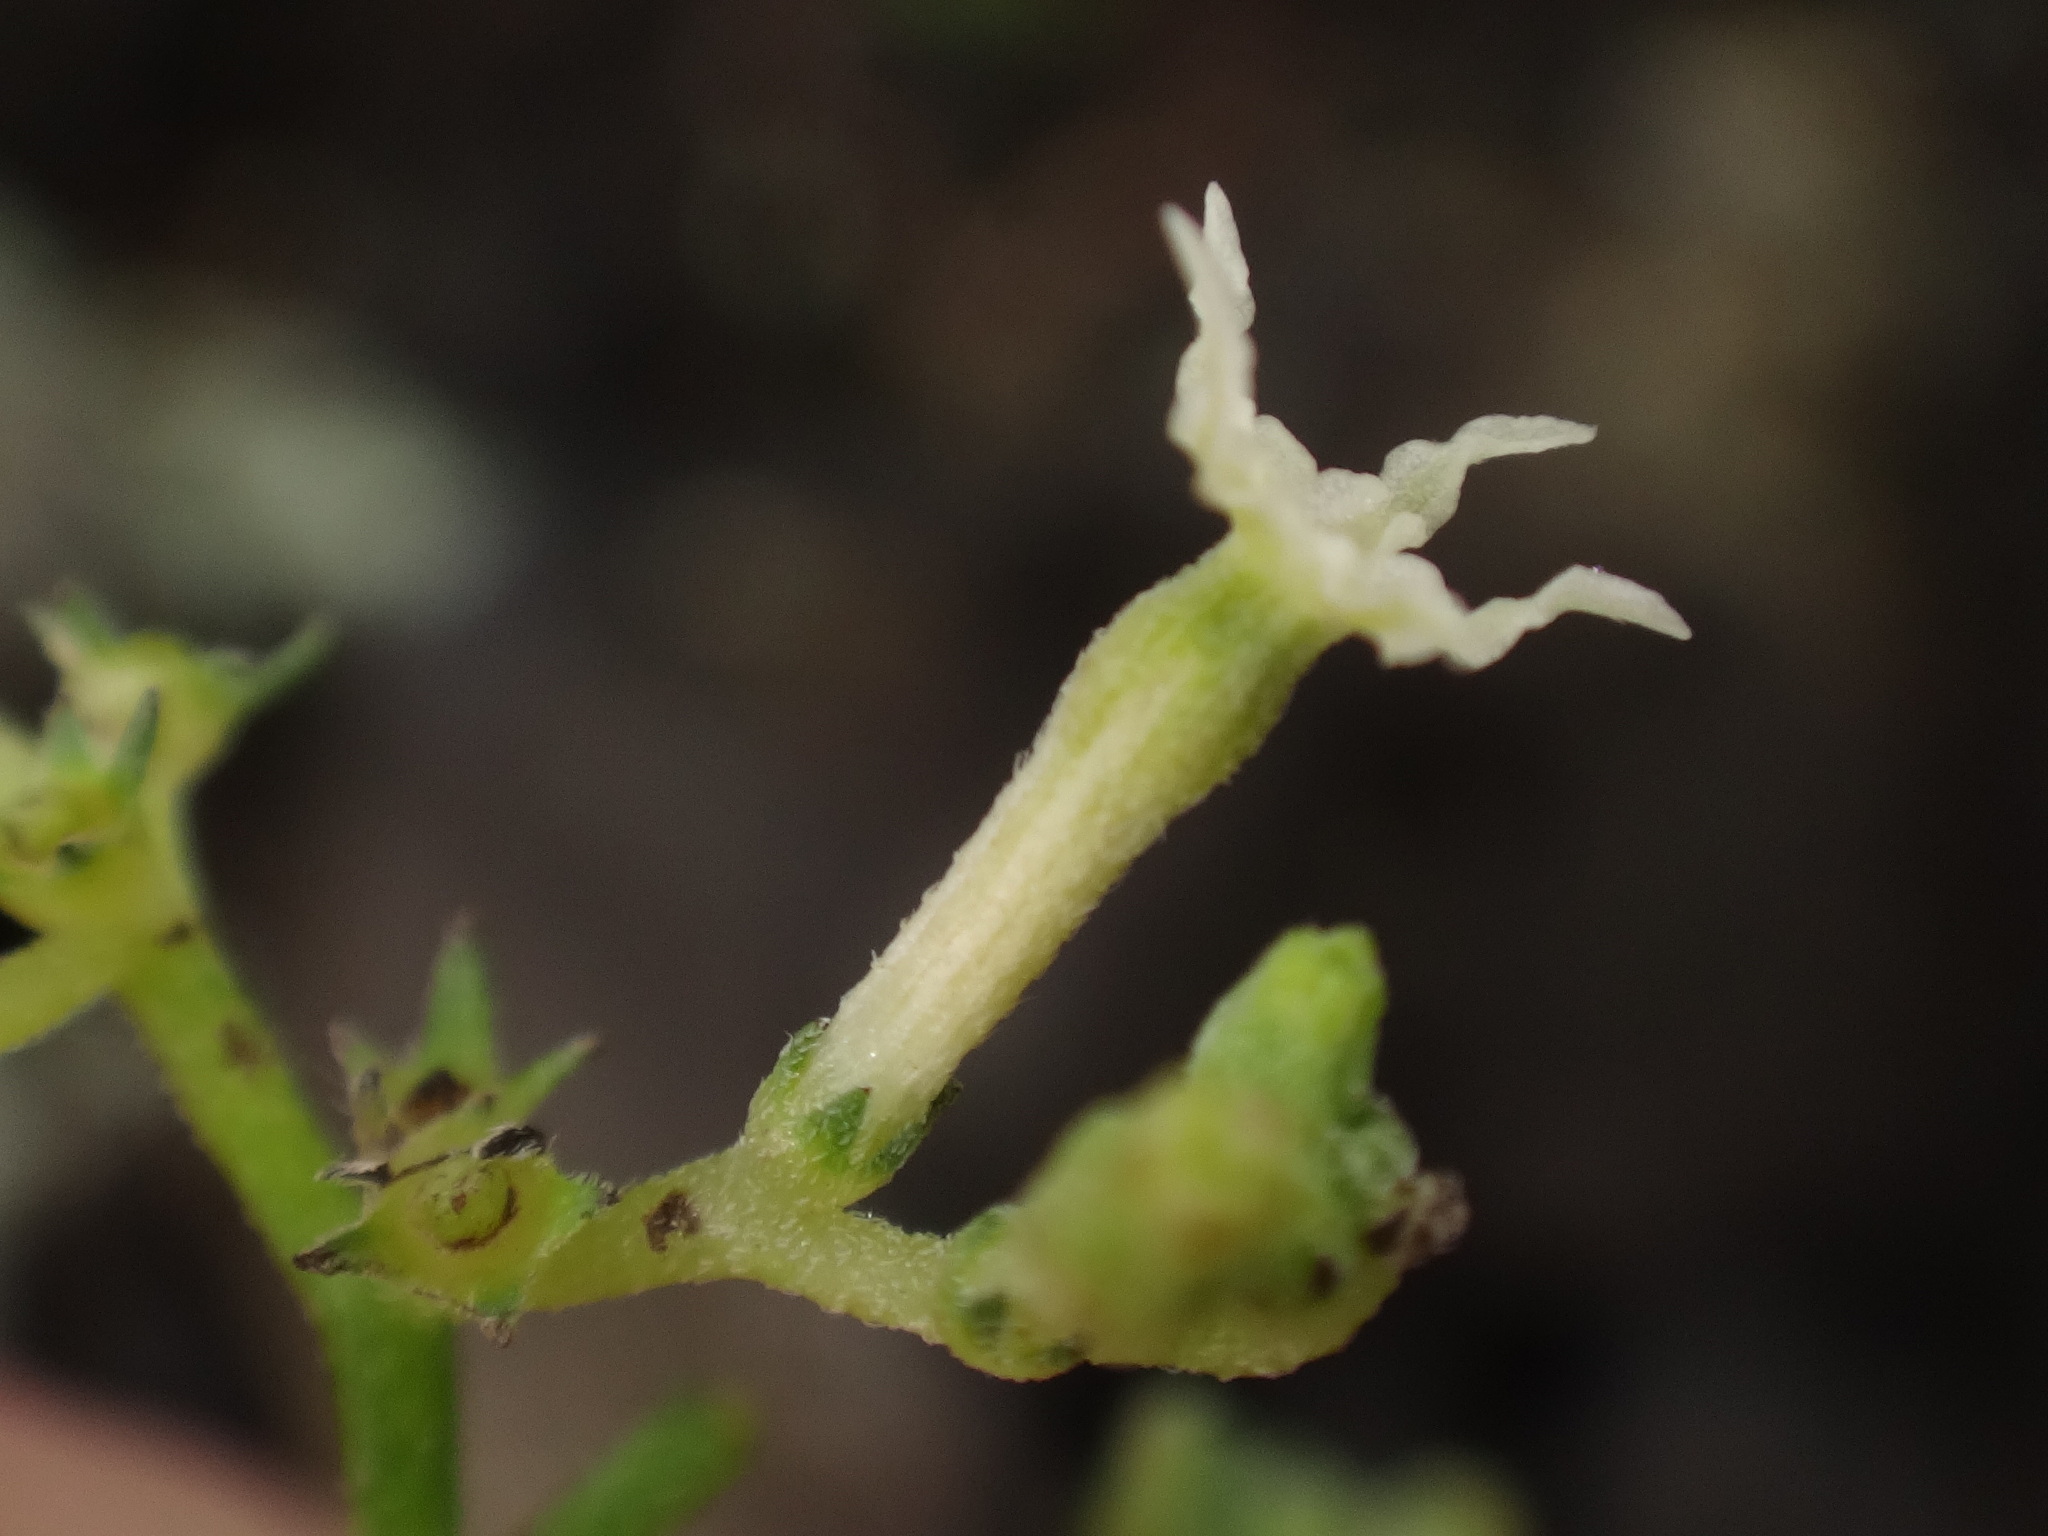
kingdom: Plantae
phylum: Tracheophyta
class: Magnoliopsida
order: Boraginales
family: Heliotropiaceae
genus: Heliotropium
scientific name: Heliotropium messerschmidioides
